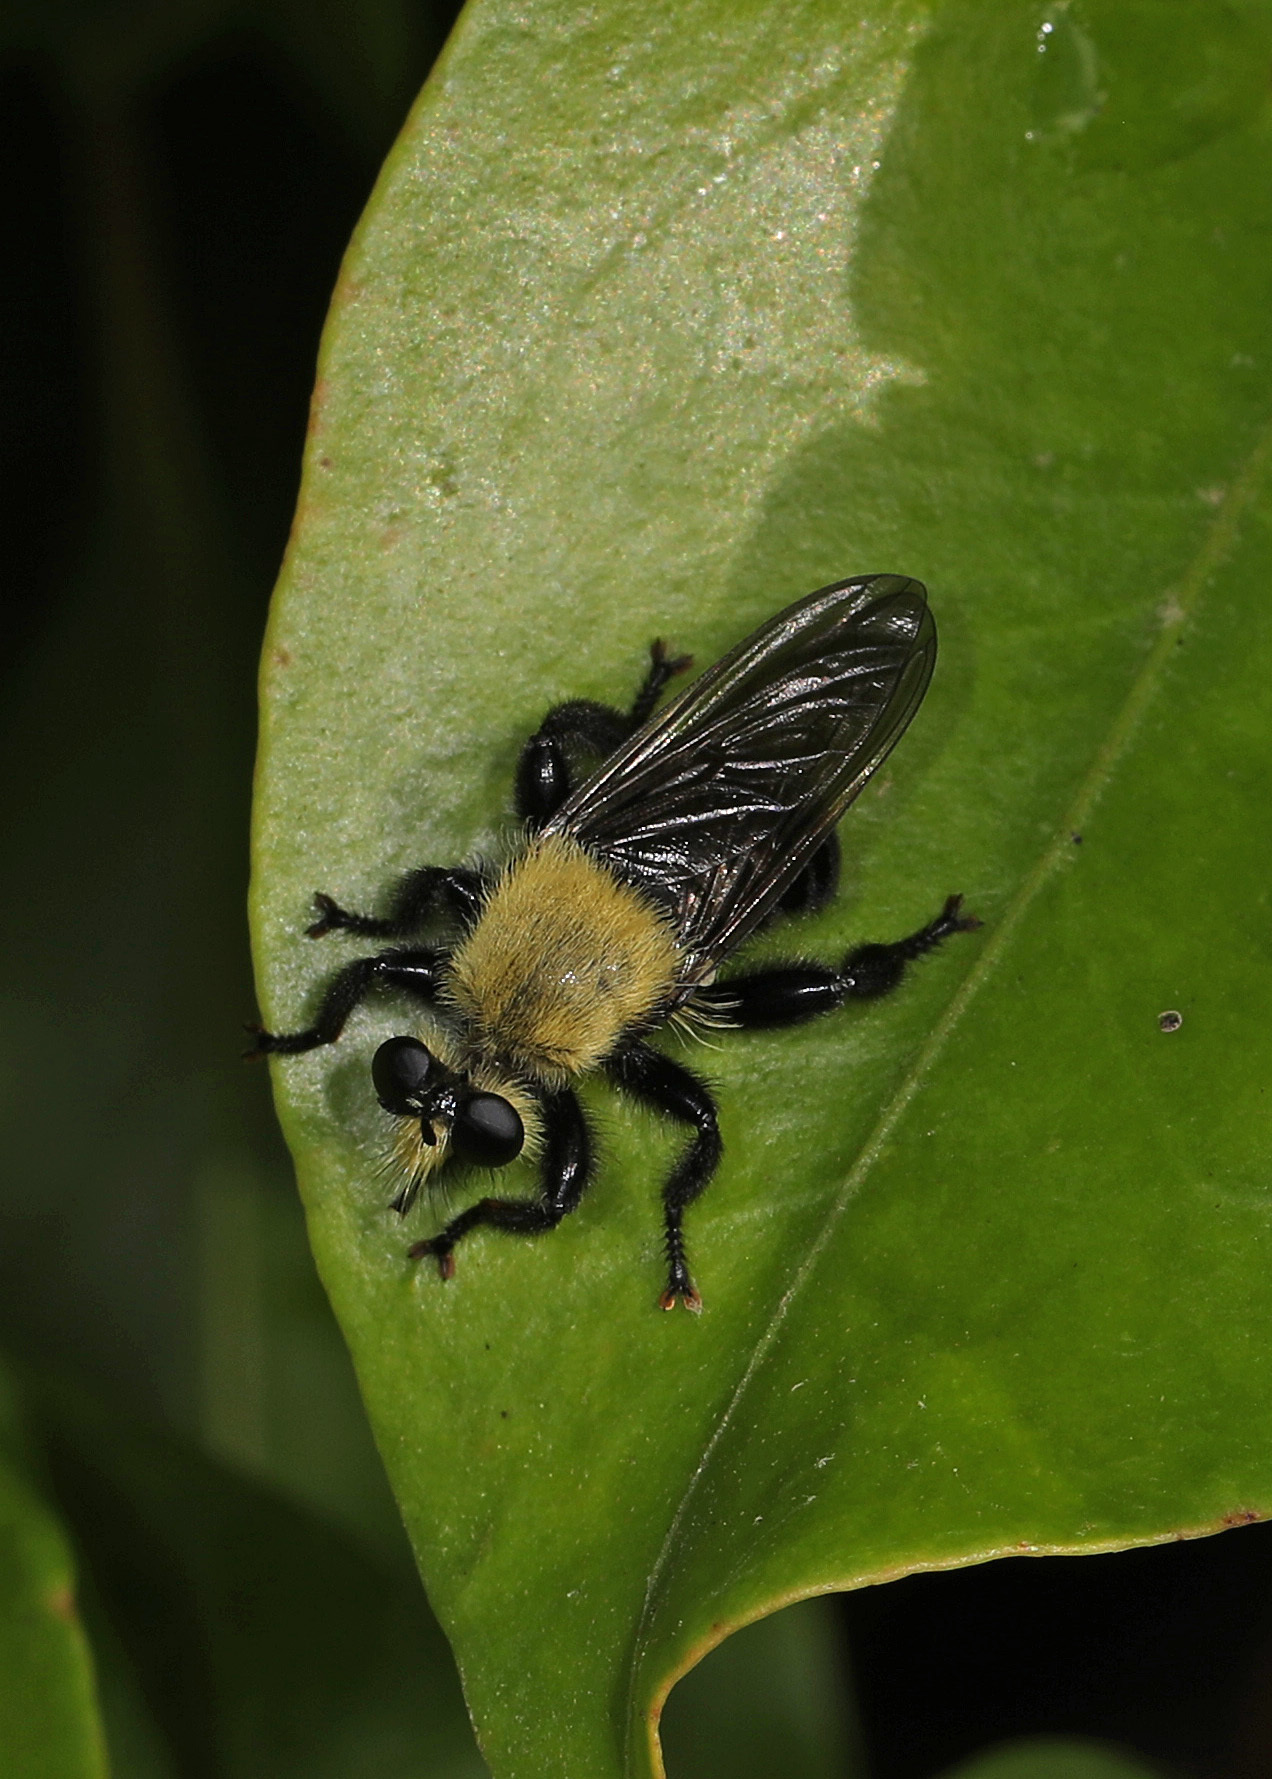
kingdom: Animalia
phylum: Arthropoda
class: Insecta
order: Diptera
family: Asilidae
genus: Laphria
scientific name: Laphria virginica
